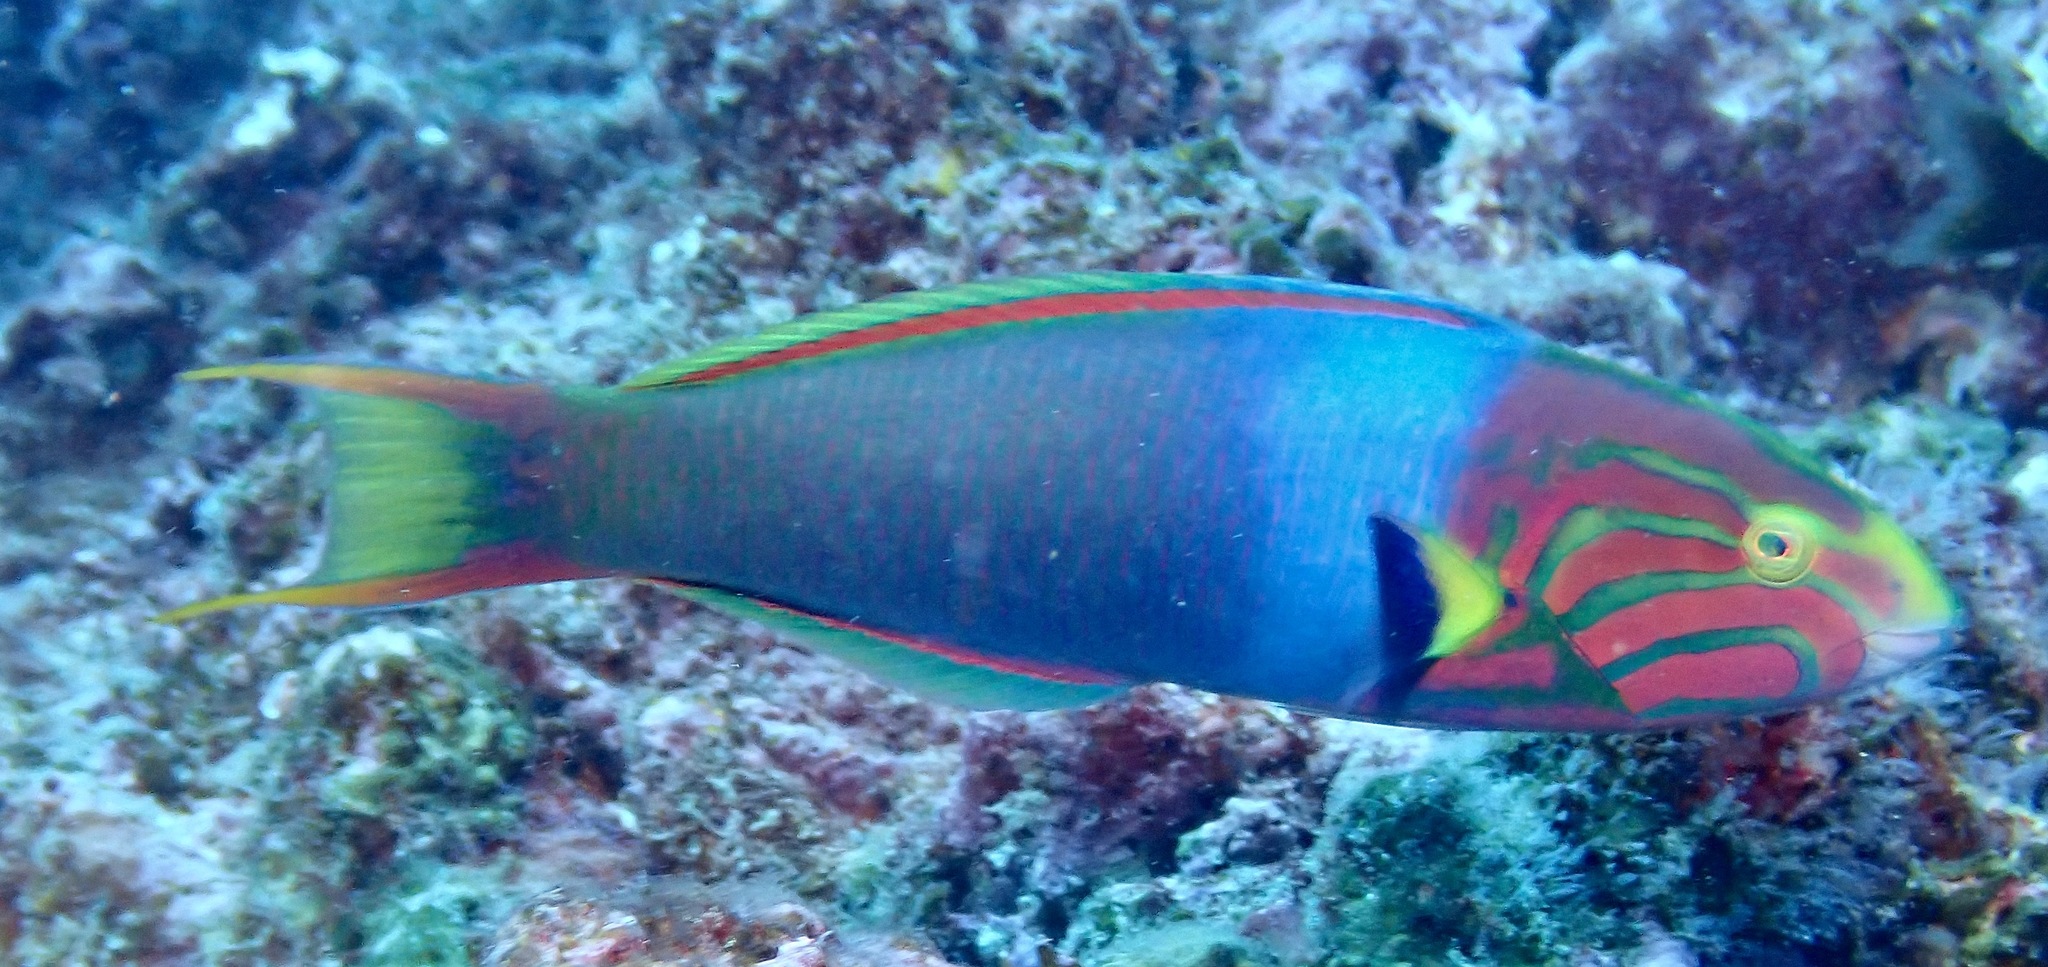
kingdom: Animalia
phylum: Chordata
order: Perciformes
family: Labridae
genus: Thalassoma
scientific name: Thalassoma lutescens
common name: Green moon wrasse
